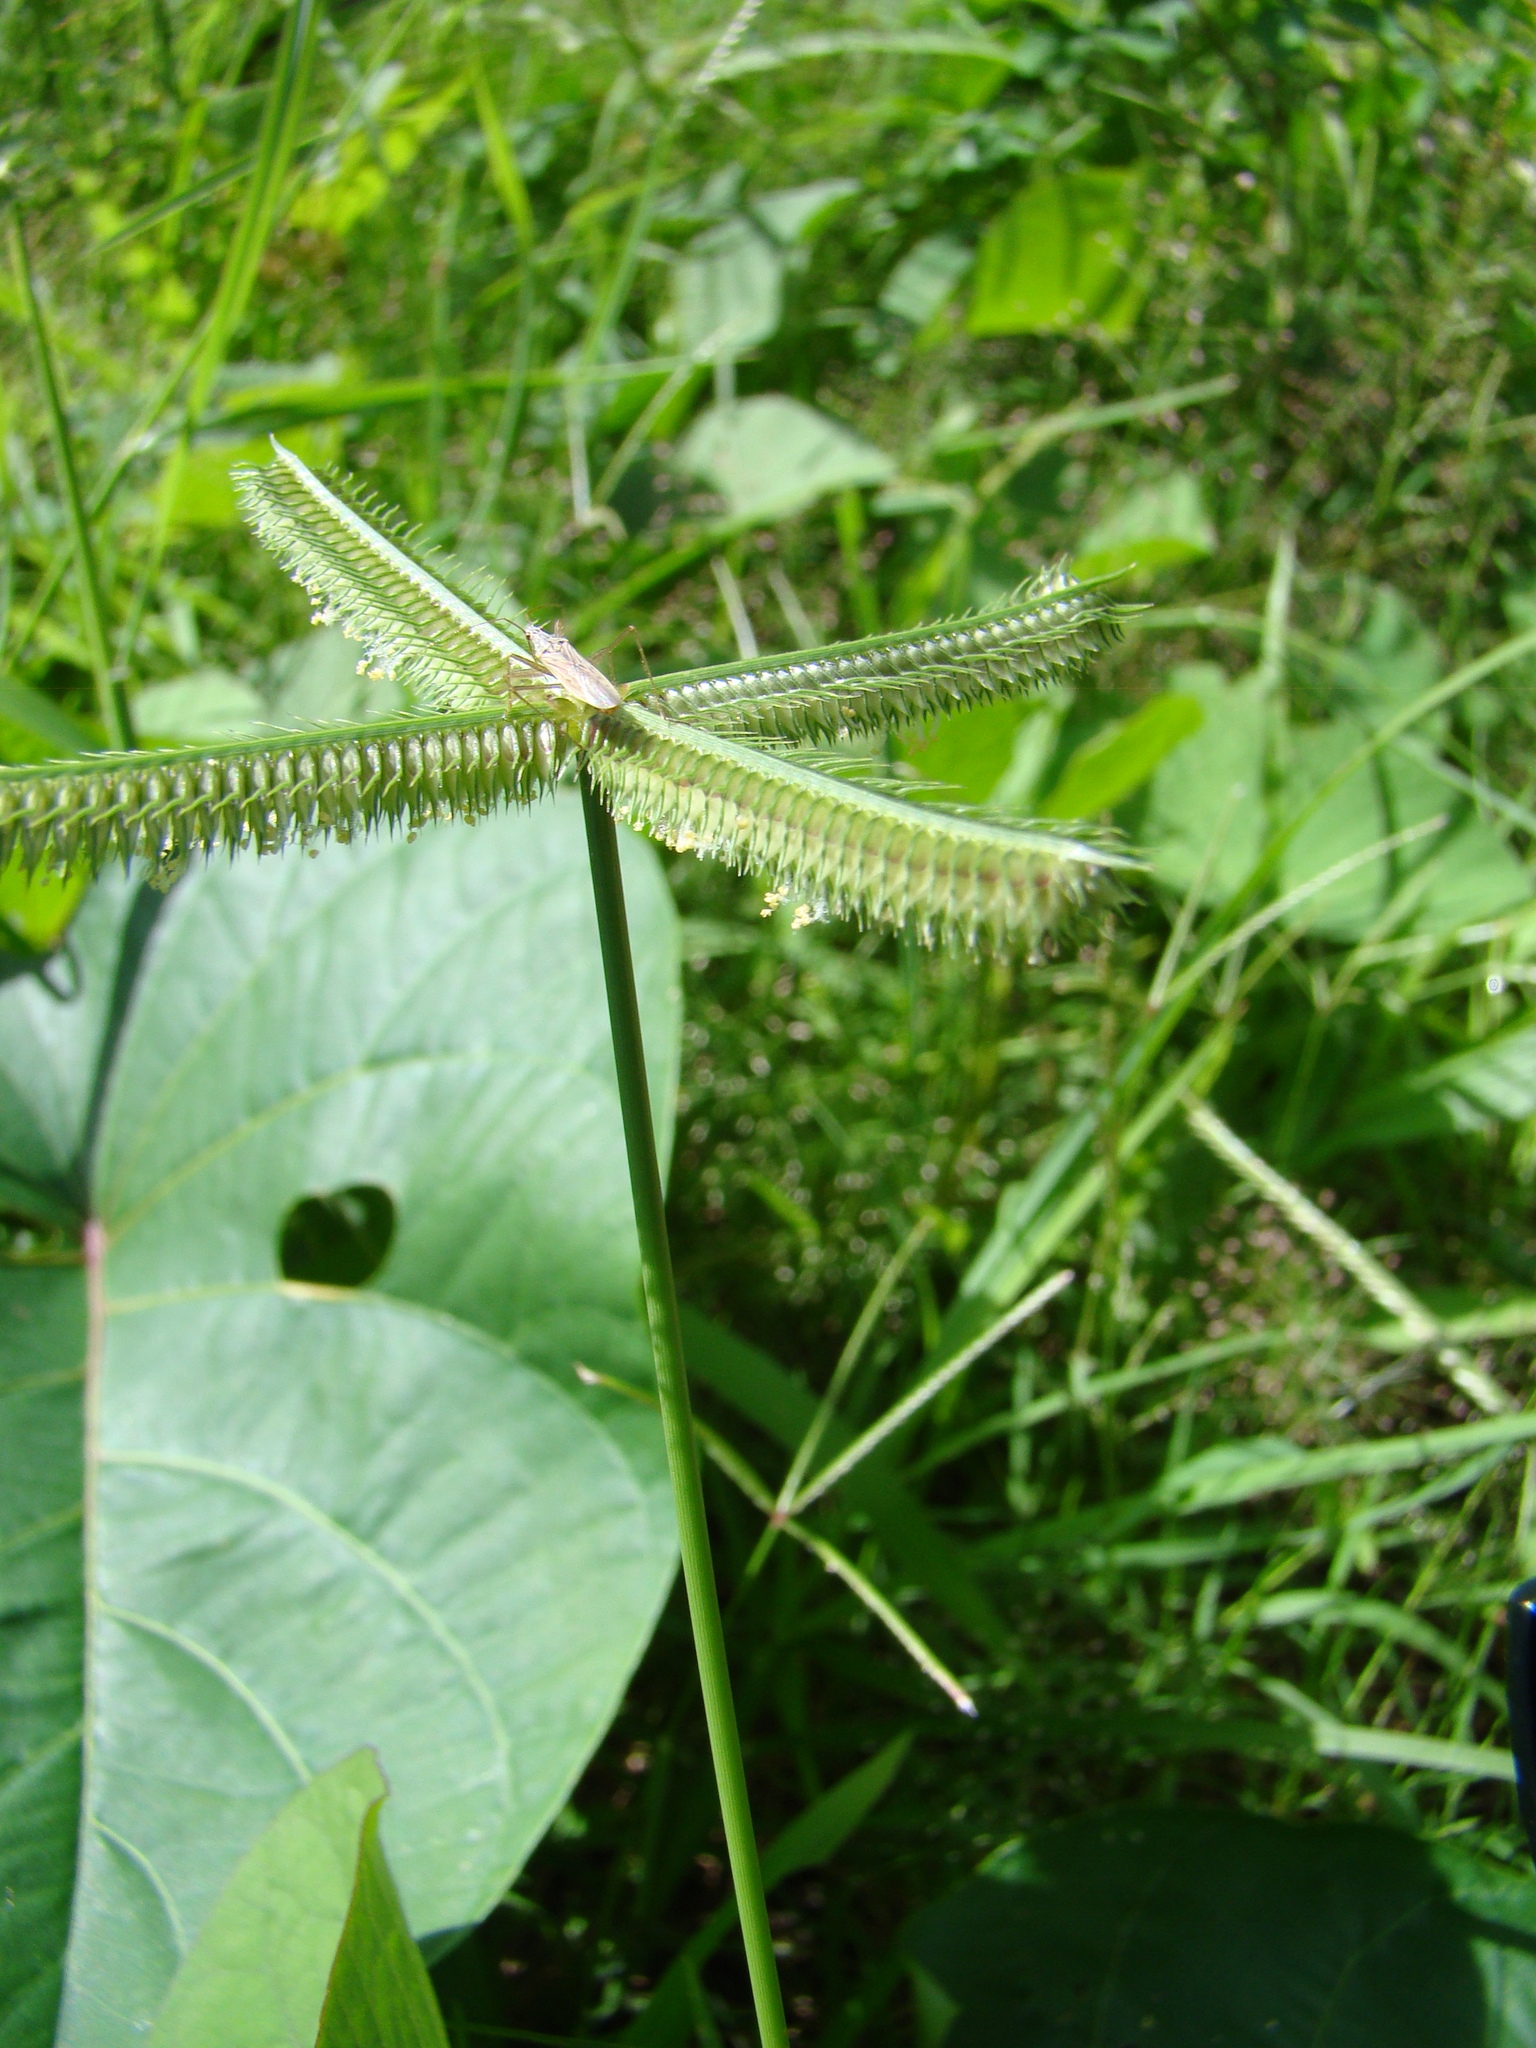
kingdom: Plantae
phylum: Tracheophyta
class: Liliopsida
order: Poales
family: Poaceae
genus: Dactyloctenium
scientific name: Dactyloctenium aegyptium
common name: Egyptian grass
